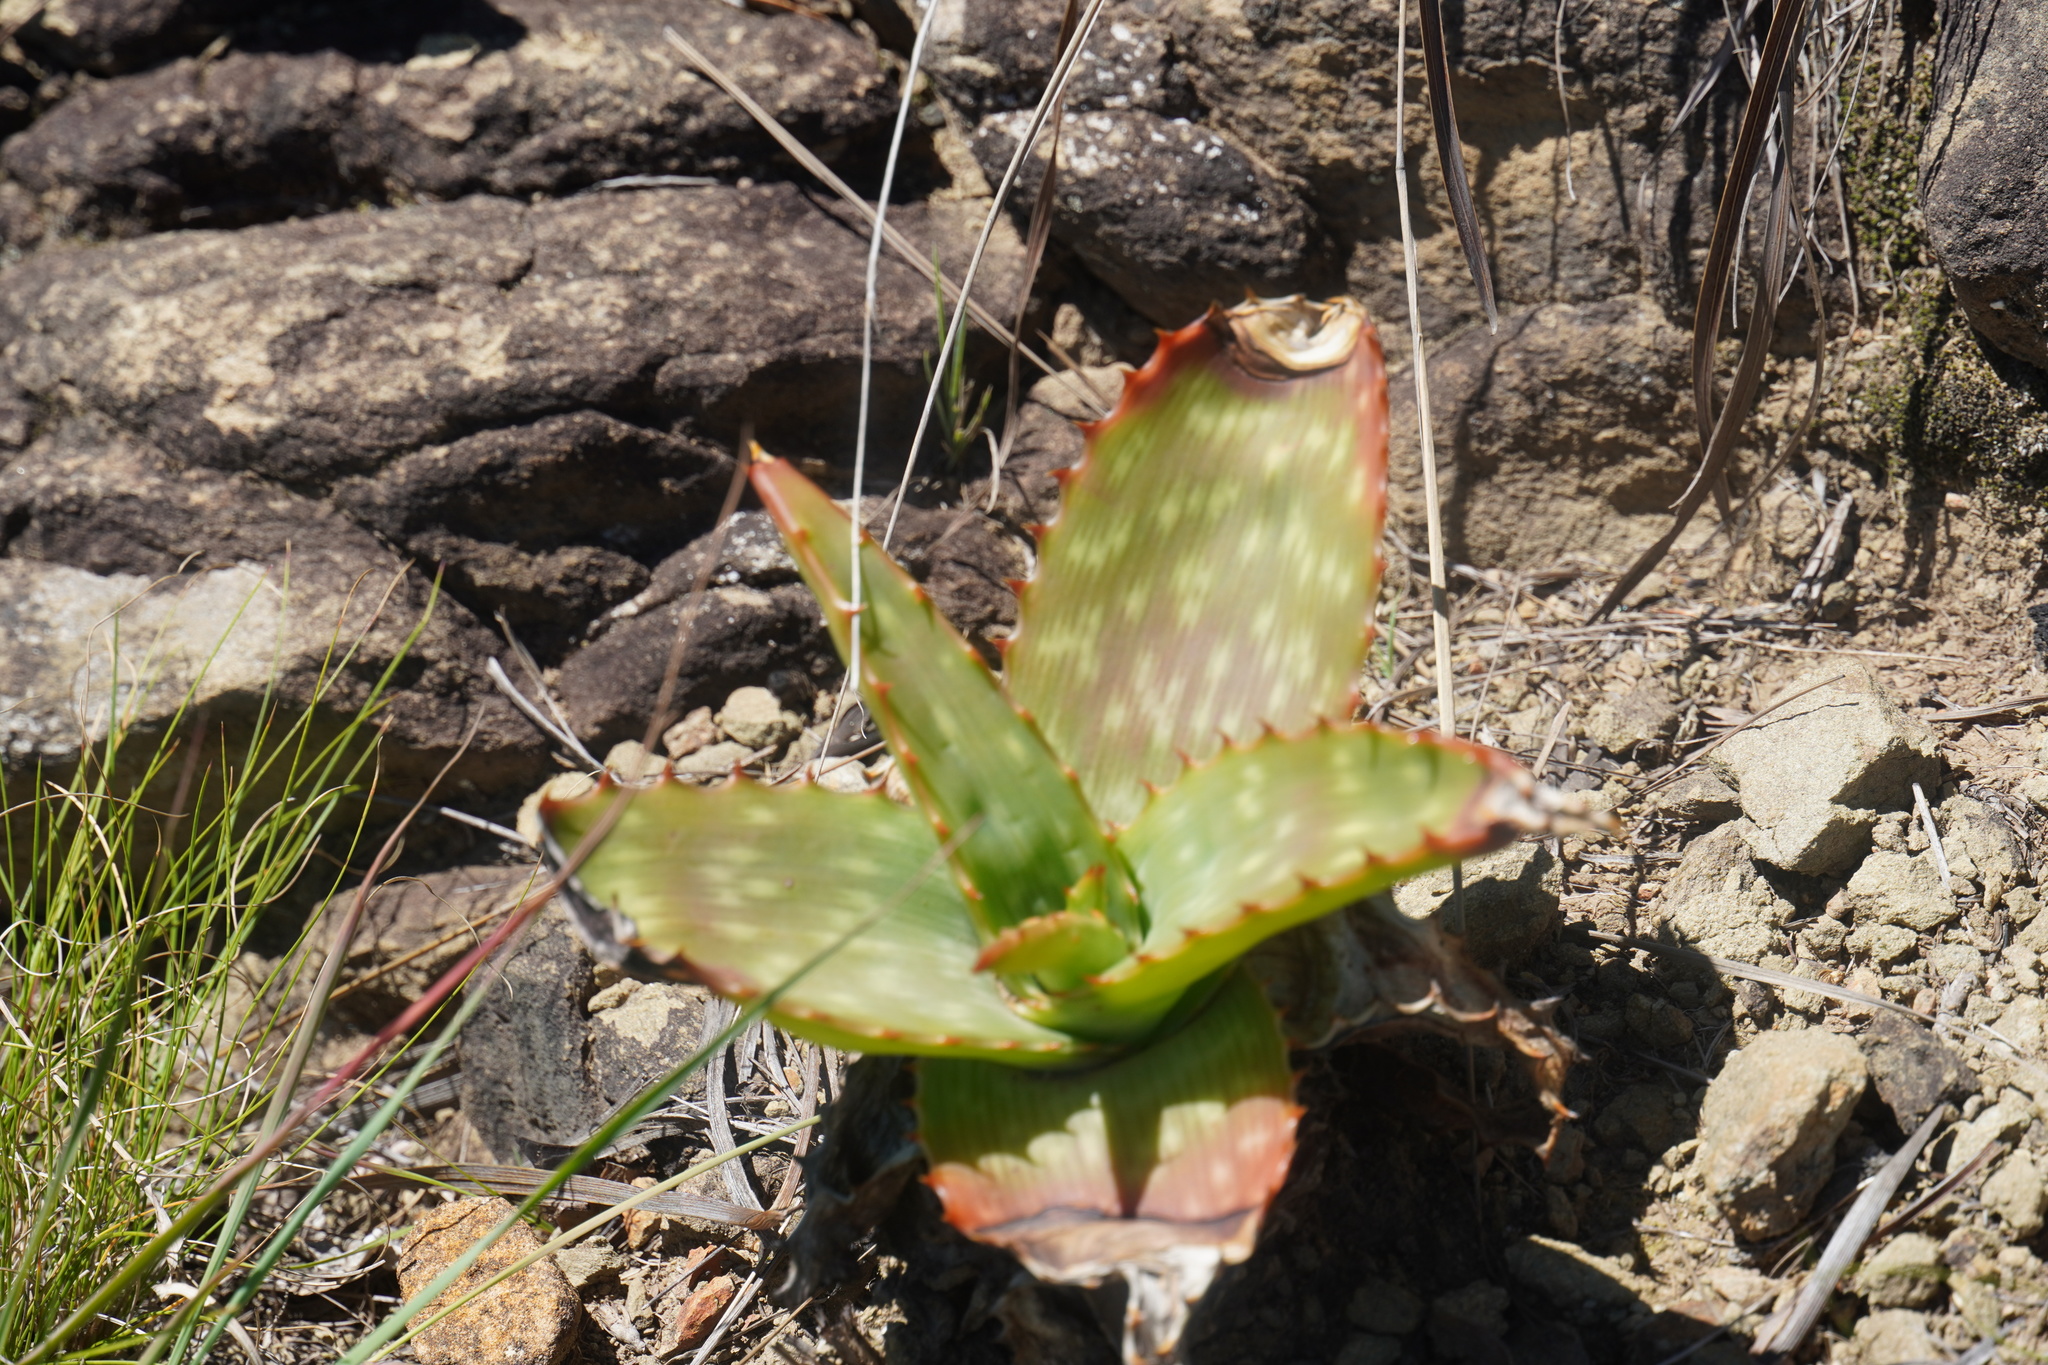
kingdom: Plantae
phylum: Tracheophyta
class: Liliopsida
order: Asparagales
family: Asphodelaceae
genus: Aloe
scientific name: Aloe maculata
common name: Broadleaf aloe
